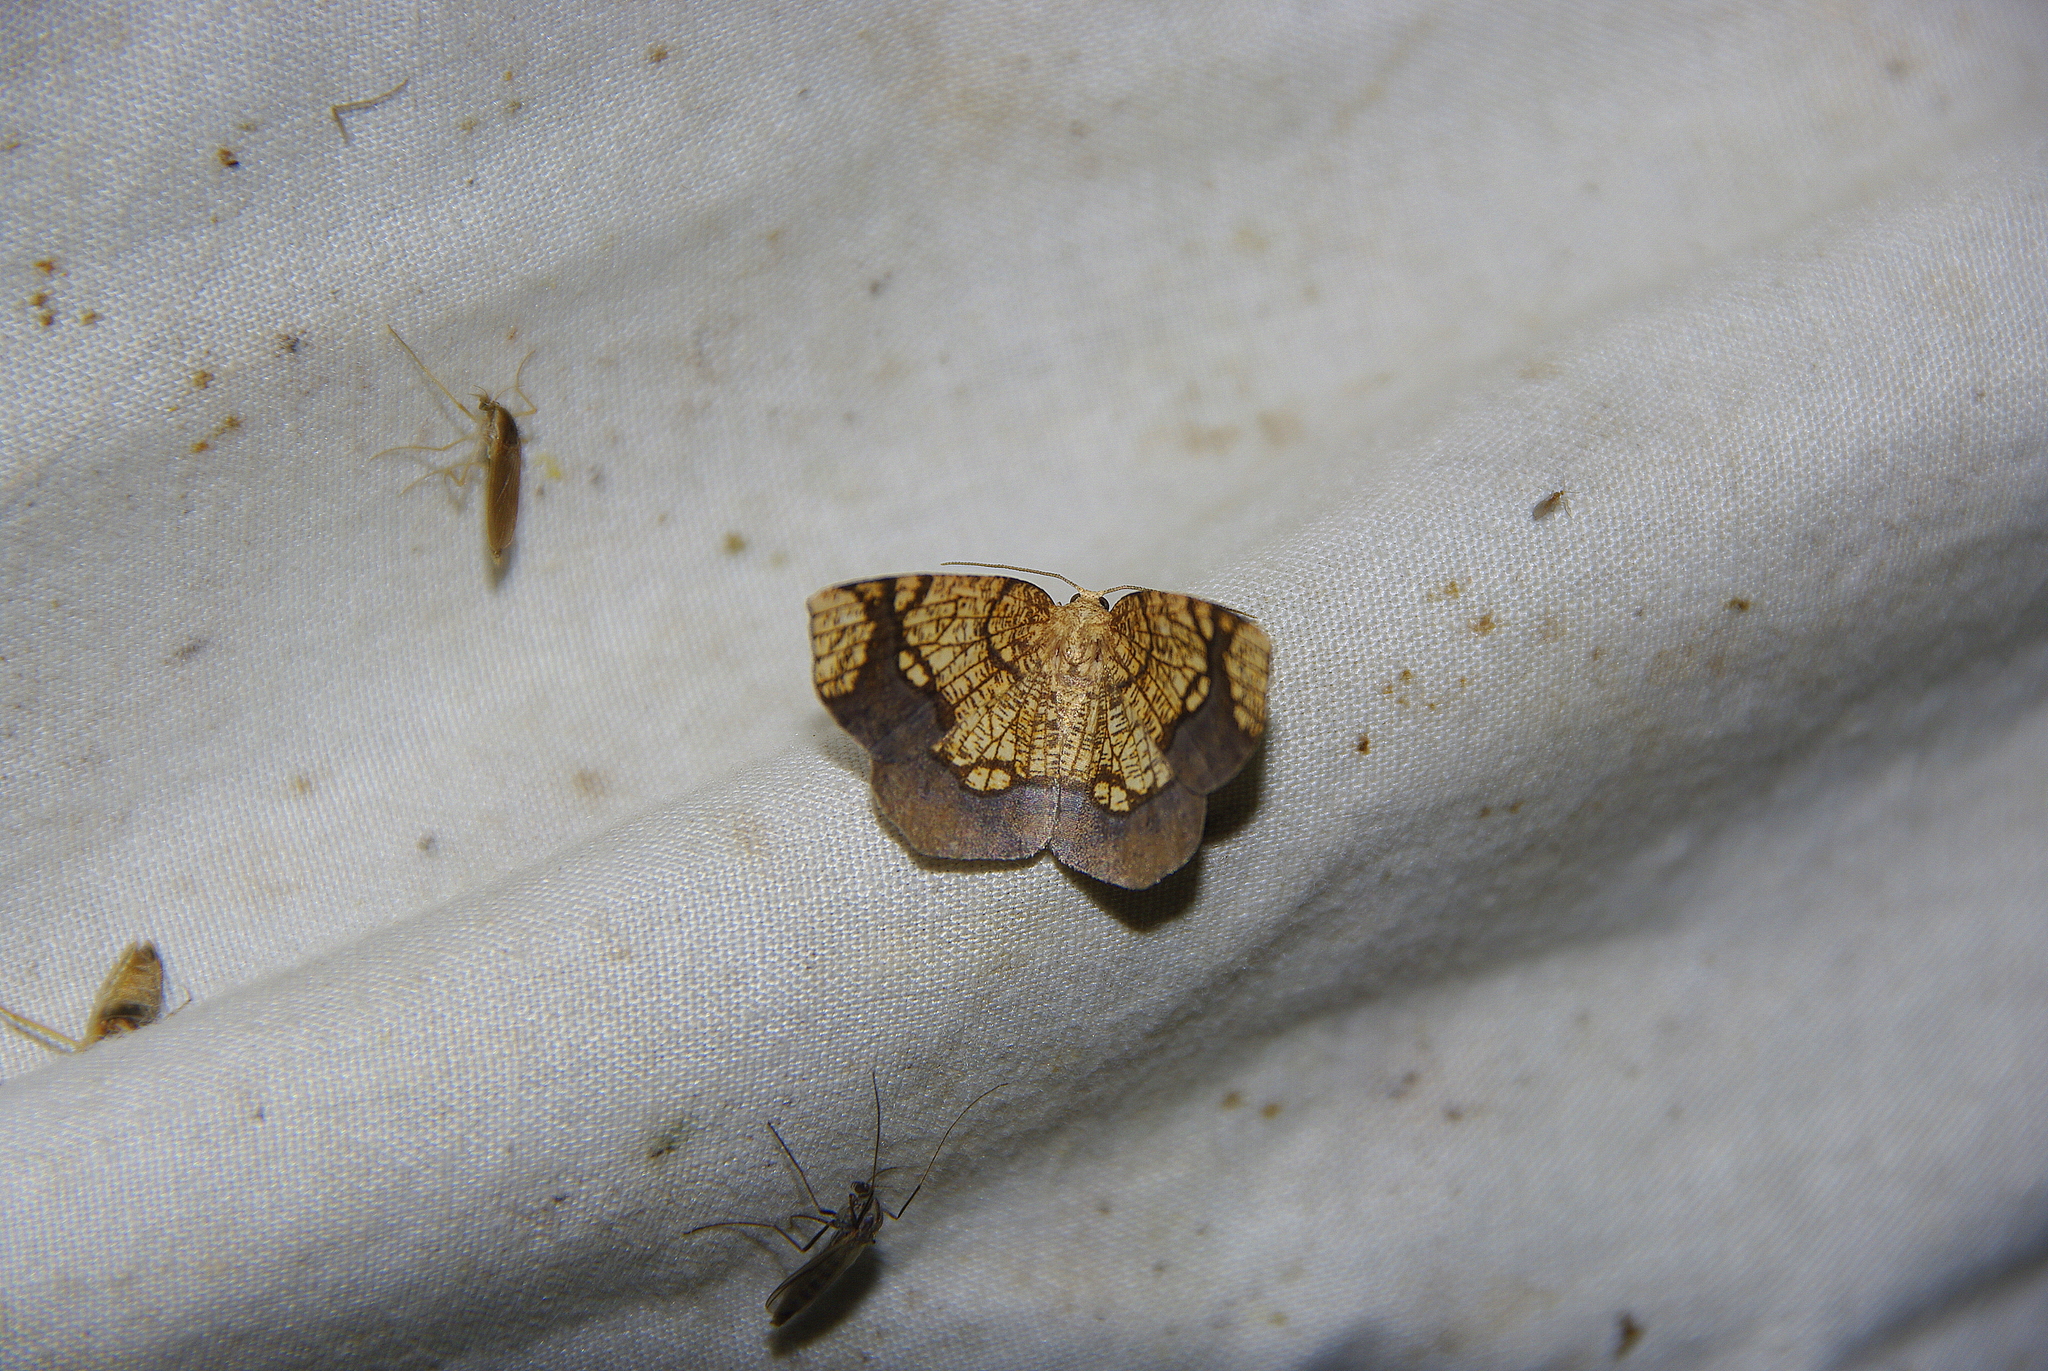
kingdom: Animalia
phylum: Arthropoda
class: Insecta
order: Lepidoptera
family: Geometridae
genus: Nematocampa
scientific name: Nematocampa resistaria
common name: Horned spanworm moth
